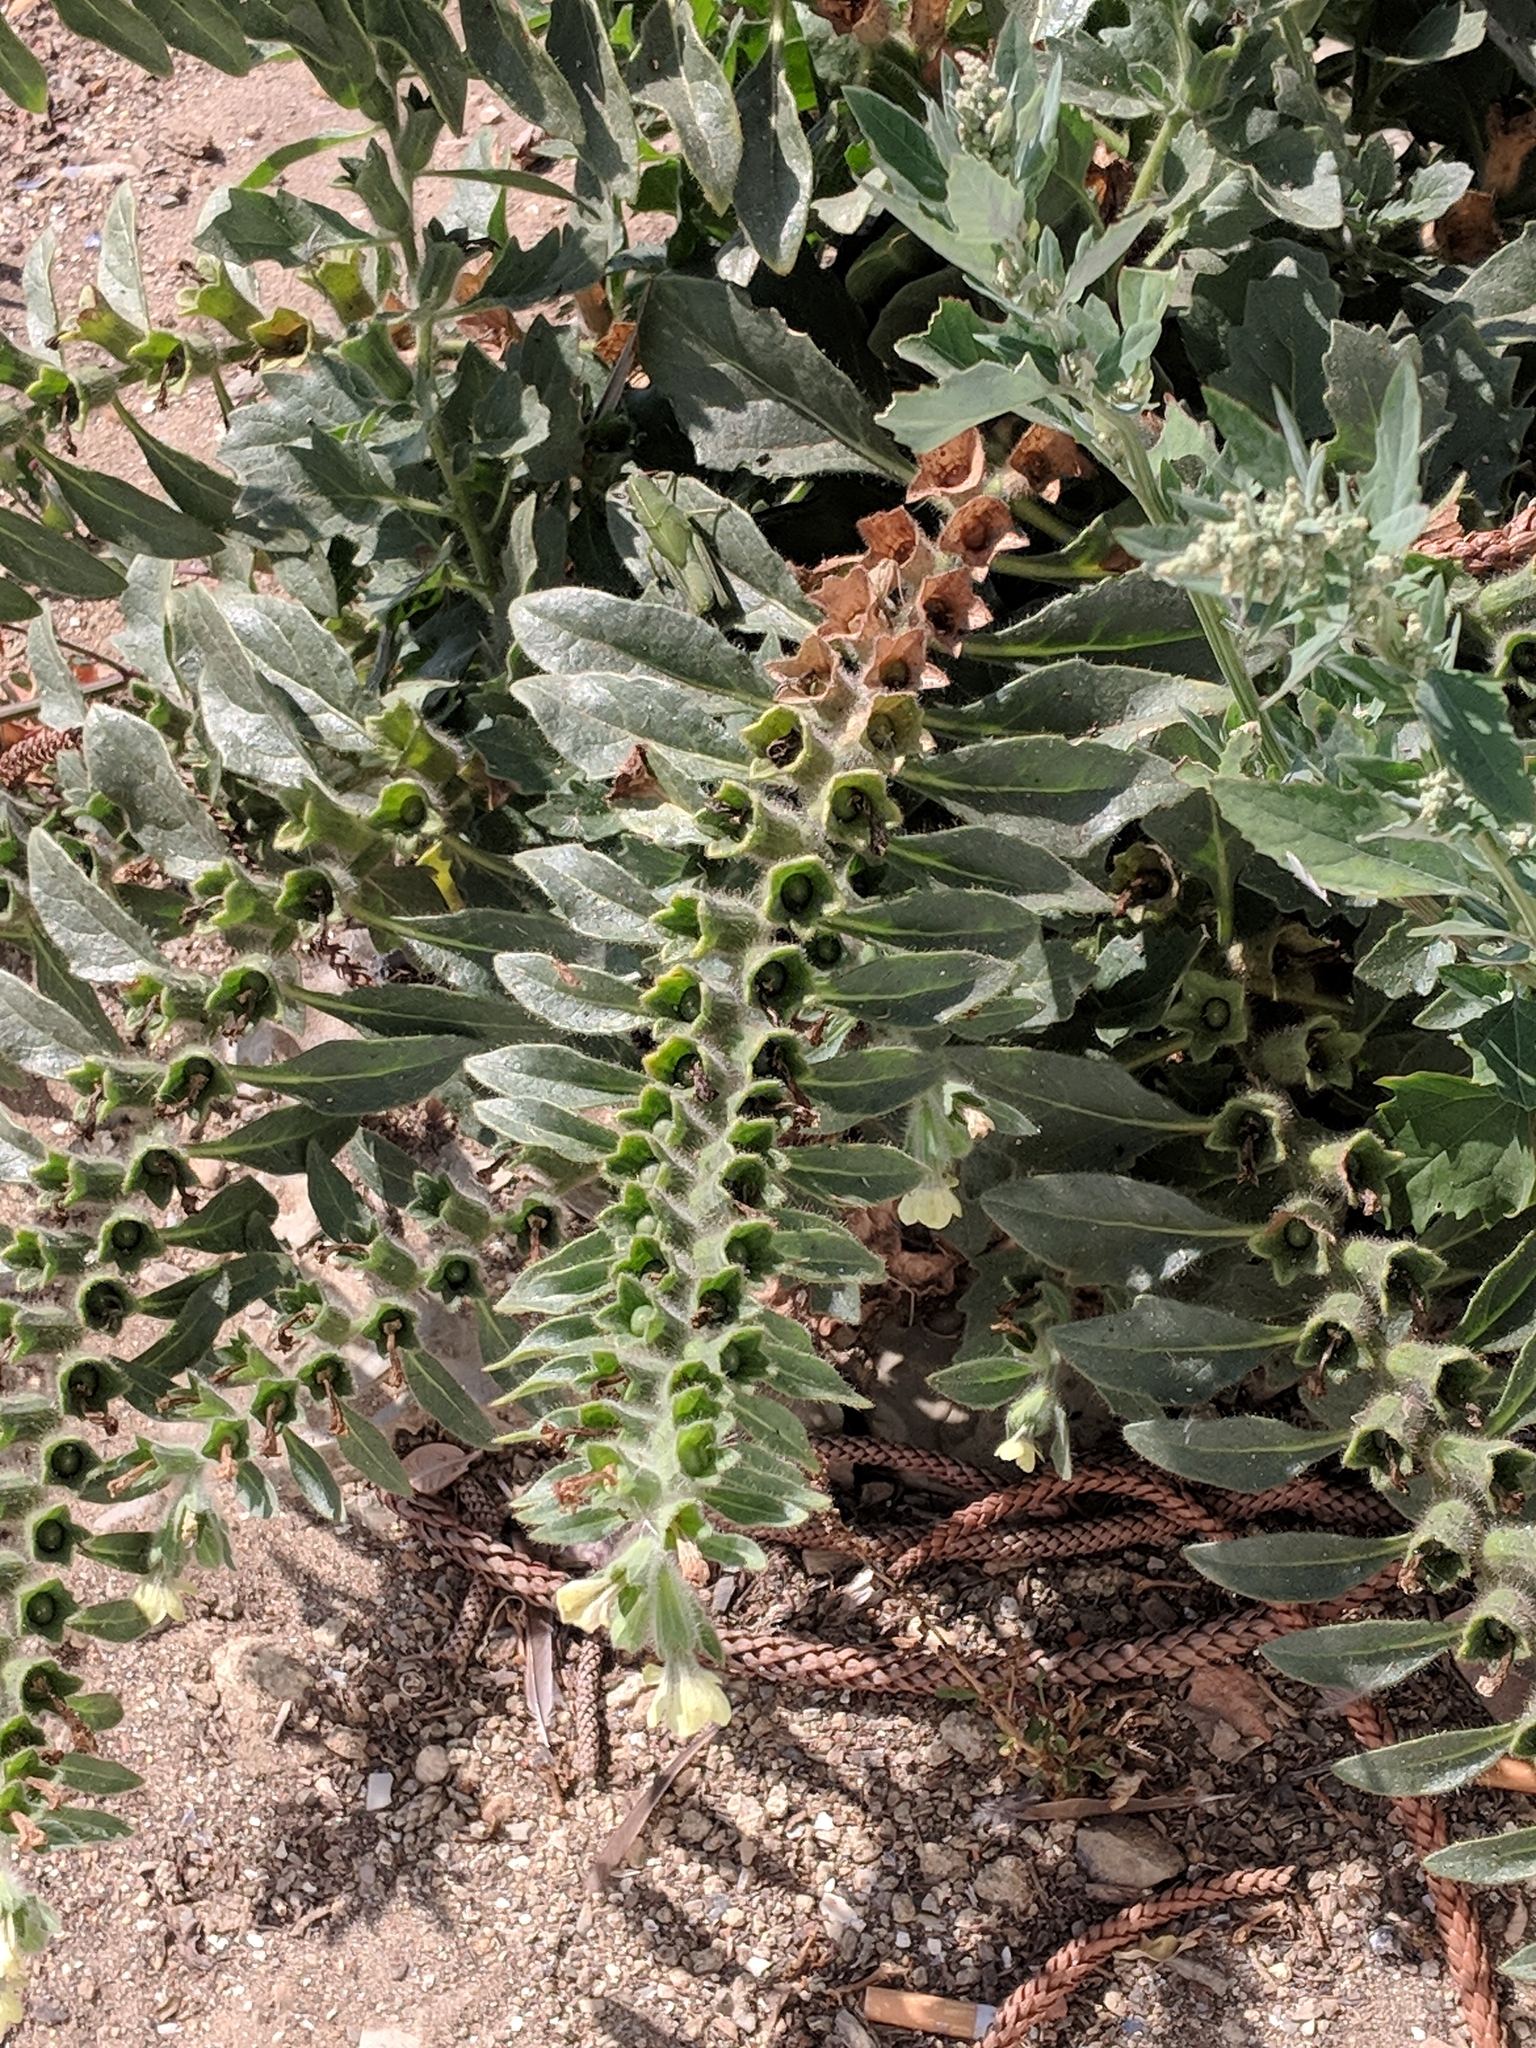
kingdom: Plantae
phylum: Tracheophyta
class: Magnoliopsida
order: Solanales
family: Solanaceae
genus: Hyoscyamus
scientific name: Hyoscyamus albus
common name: White henbane
